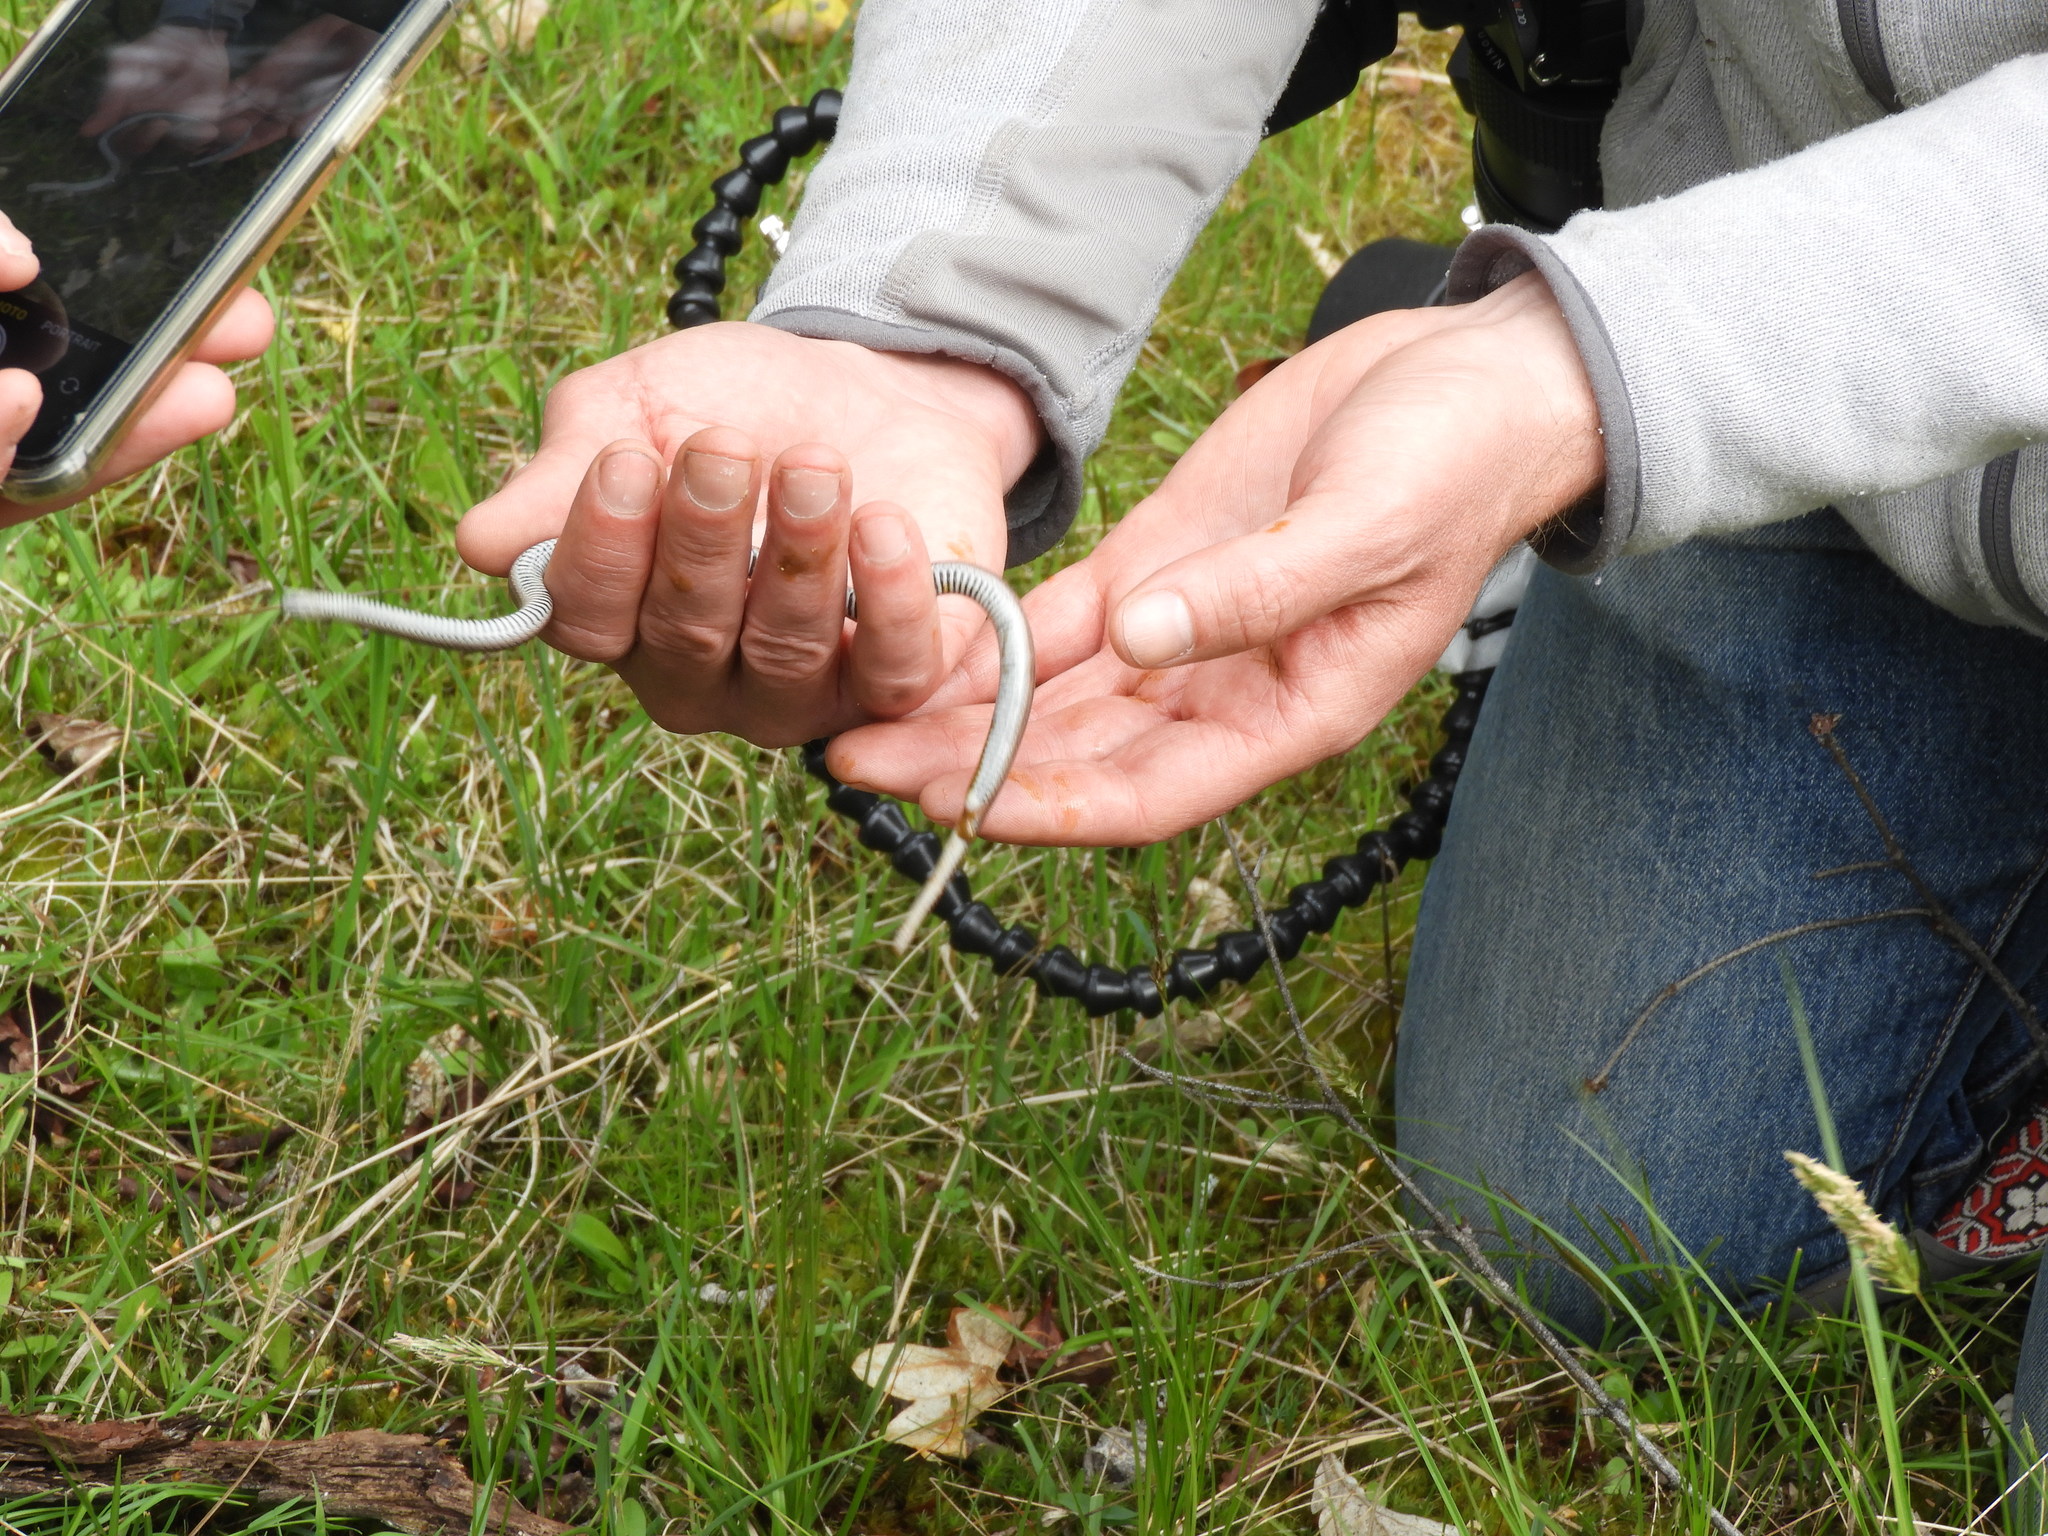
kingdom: Animalia
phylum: Chordata
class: Squamata
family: Colubridae
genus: Contia
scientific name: Contia tenuis
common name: Sharptail snake
